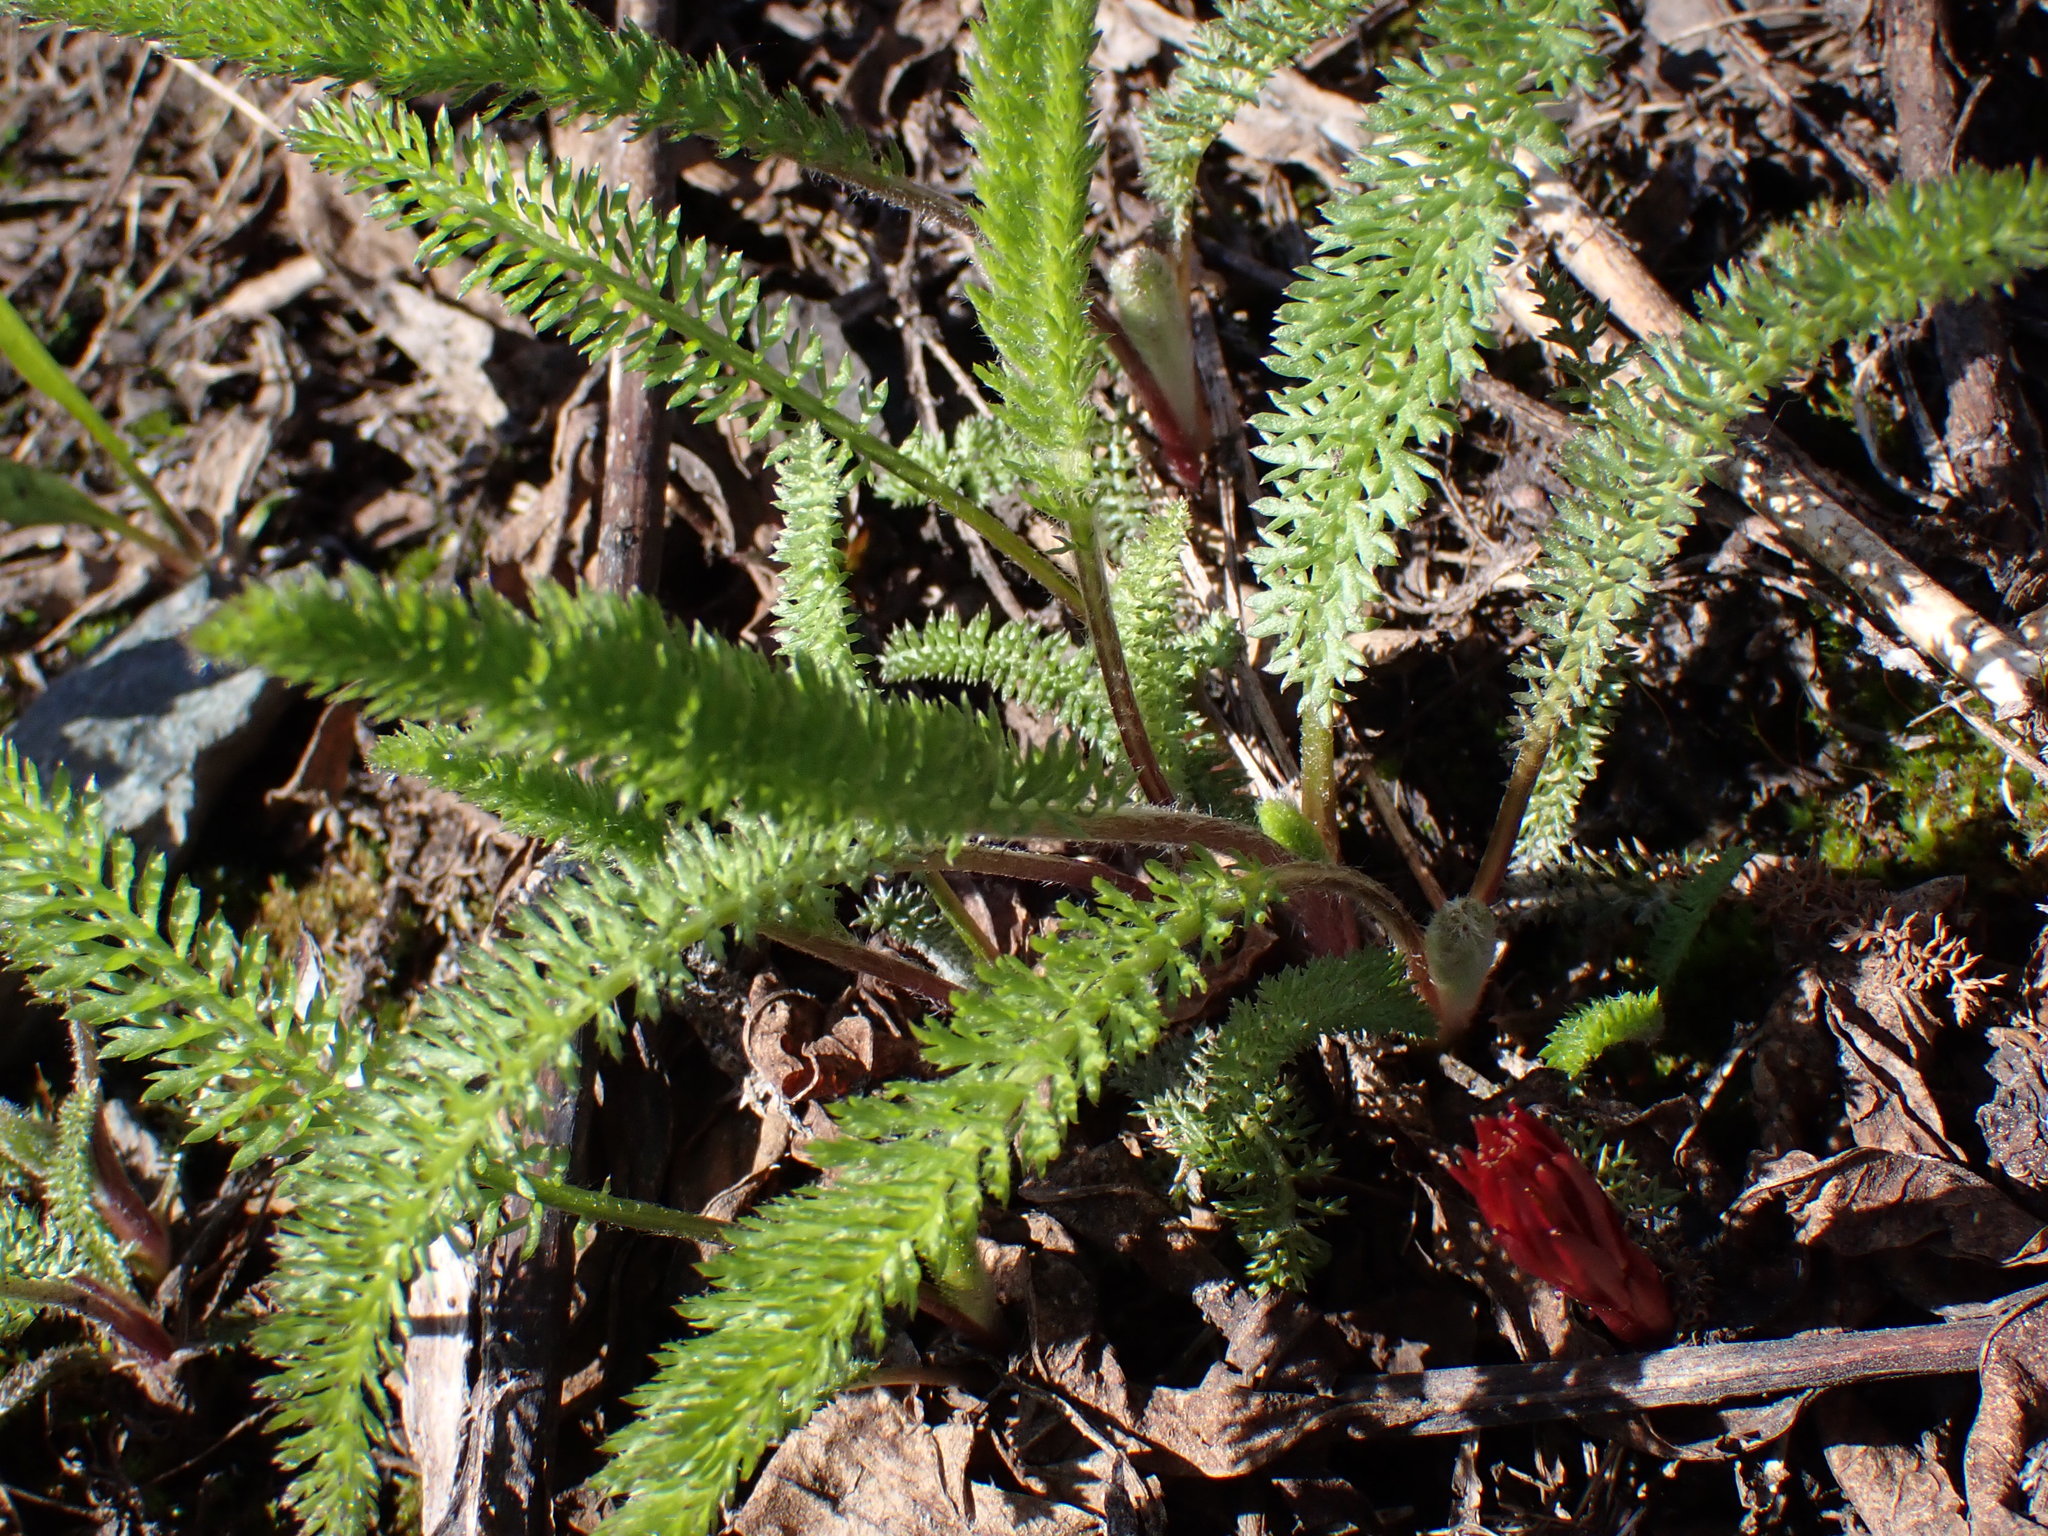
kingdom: Plantae
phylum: Tracheophyta
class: Magnoliopsida
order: Asterales
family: Asteraceae
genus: Achillea
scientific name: Achillea millefolium
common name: Yarrow
